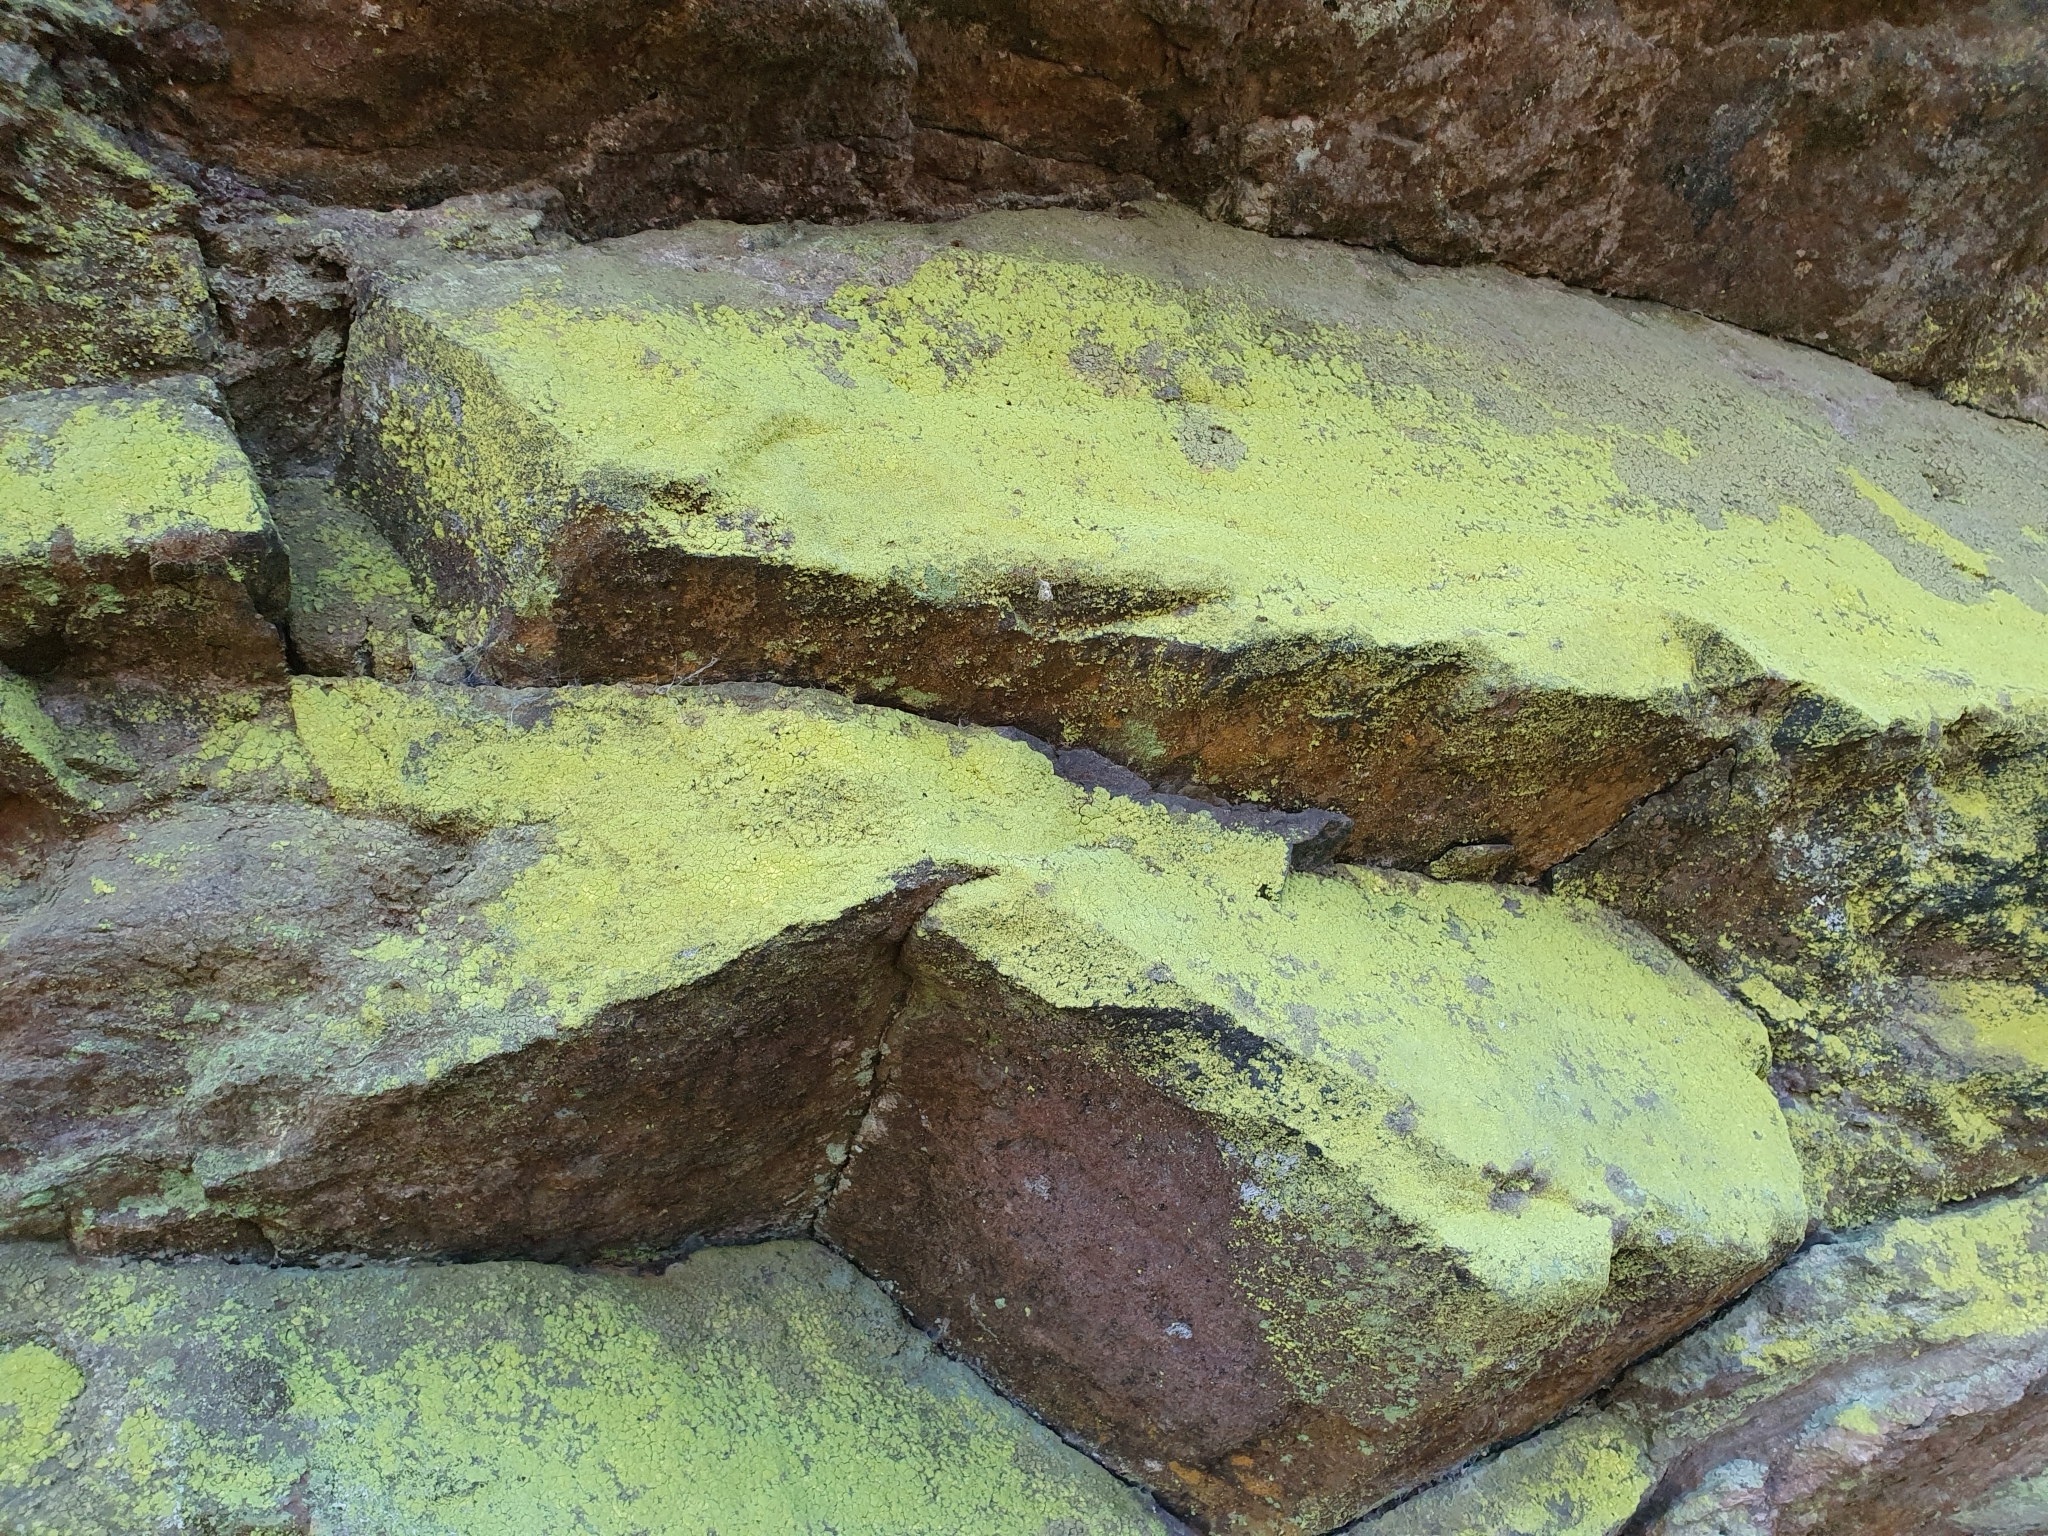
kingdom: Fungi
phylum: Ascomycota
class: Arthoniomycetes
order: Arthoniales
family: Chrysotrichaceae
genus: Chrysothrix
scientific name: Chrysothrix chlorina
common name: Chlorine dust lichen
